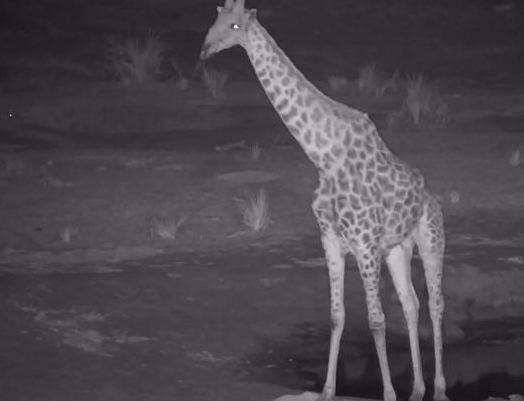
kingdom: Animalia
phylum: Chordata
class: Mammalia
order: Artiodactyla
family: Giraffidae
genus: Giraffa
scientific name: Giraffa giraffa
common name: Southern giraffe
